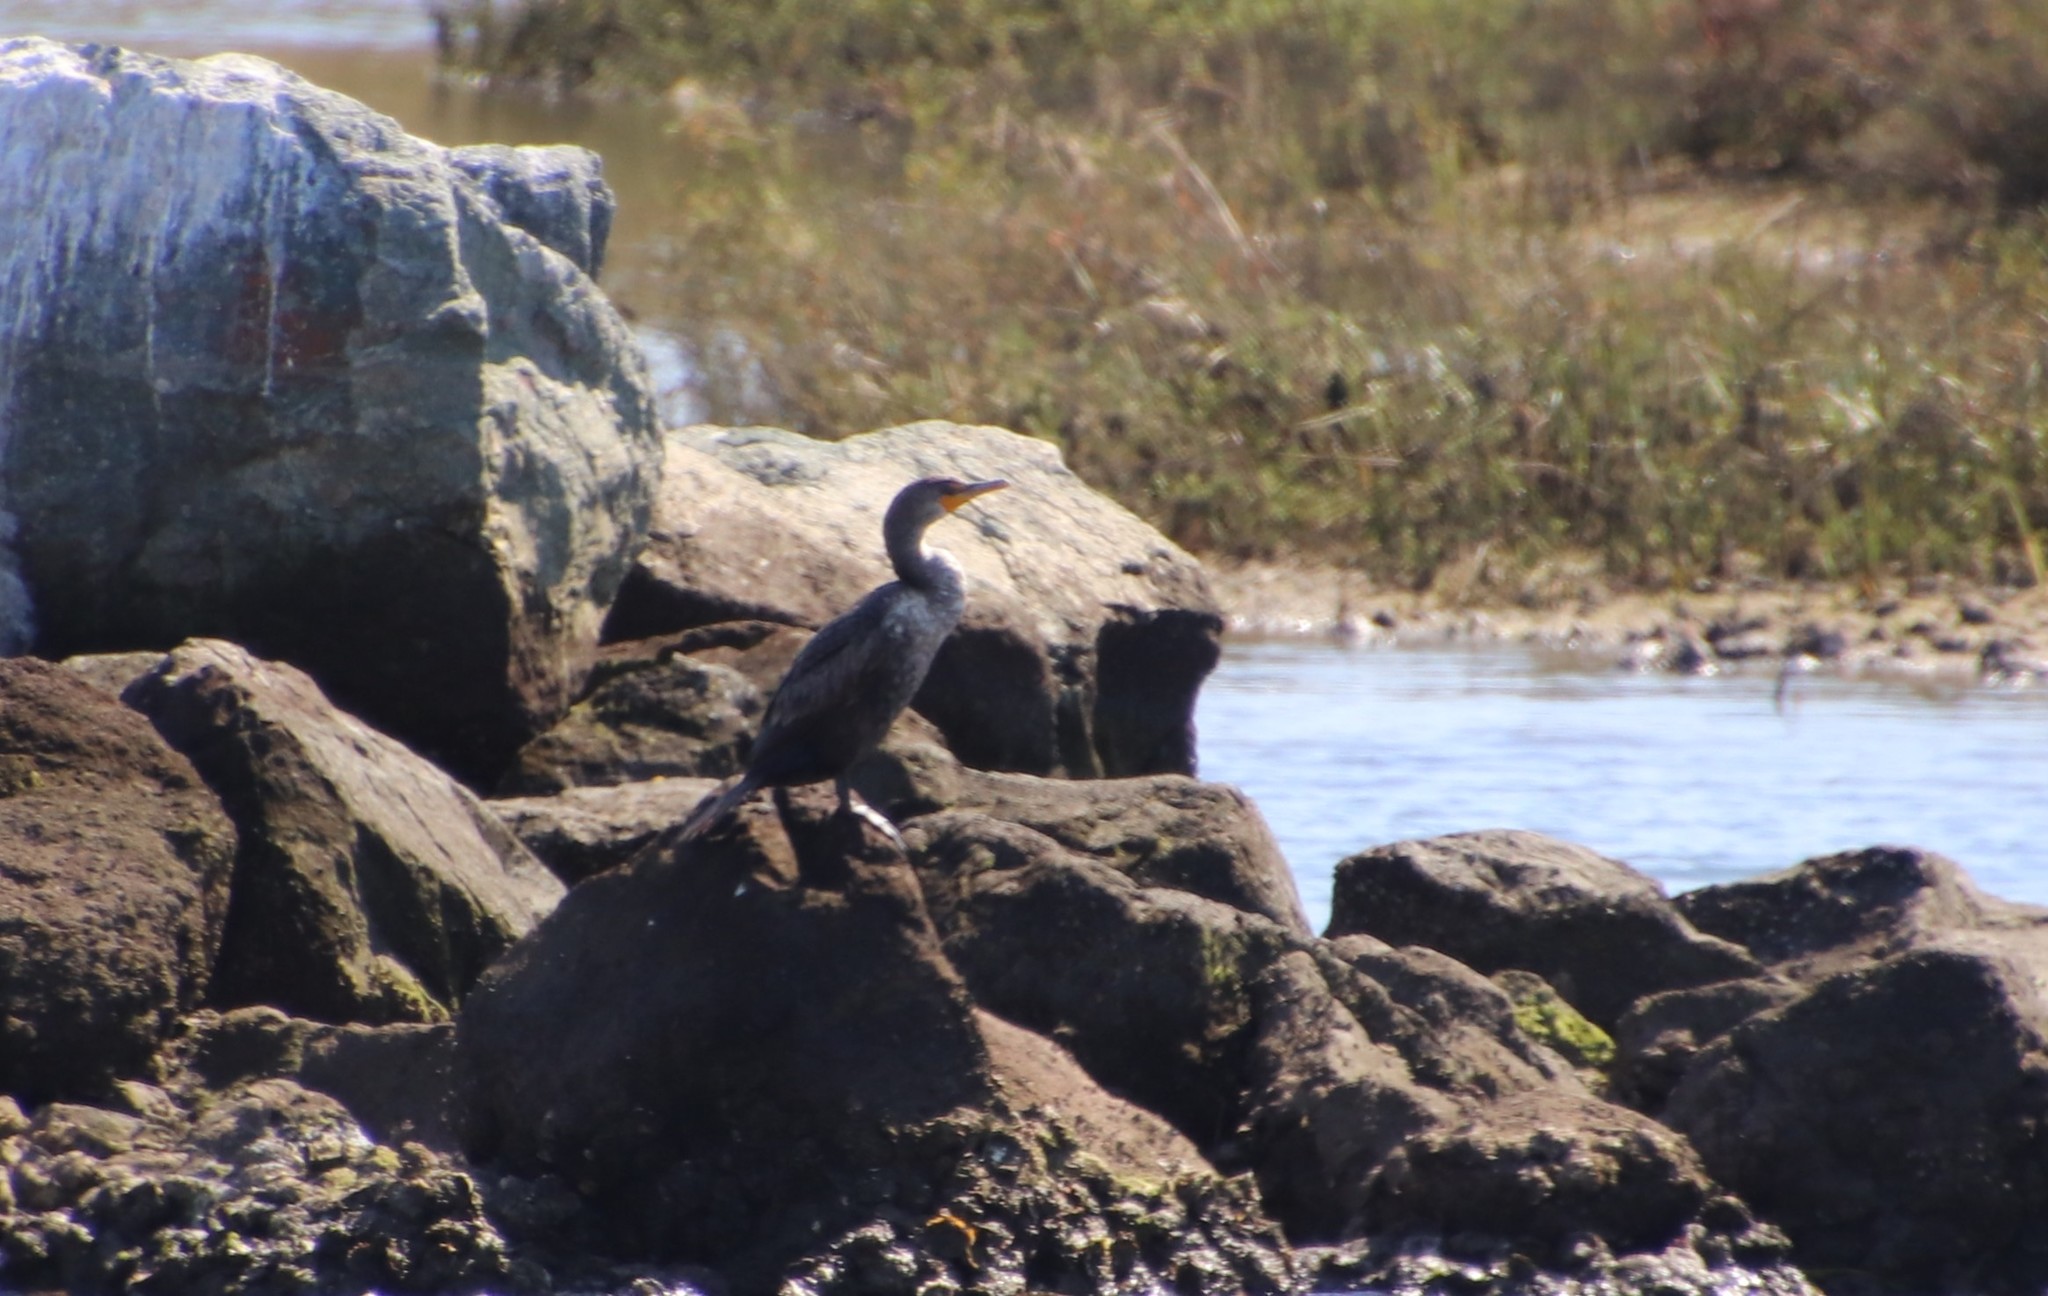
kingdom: Animalia
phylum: Chordata
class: Aves
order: Suliformes
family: Phalacrocoracidae
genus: Phalacrocorax
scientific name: Phalacrocorax auritus
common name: Double-crested cormorant
